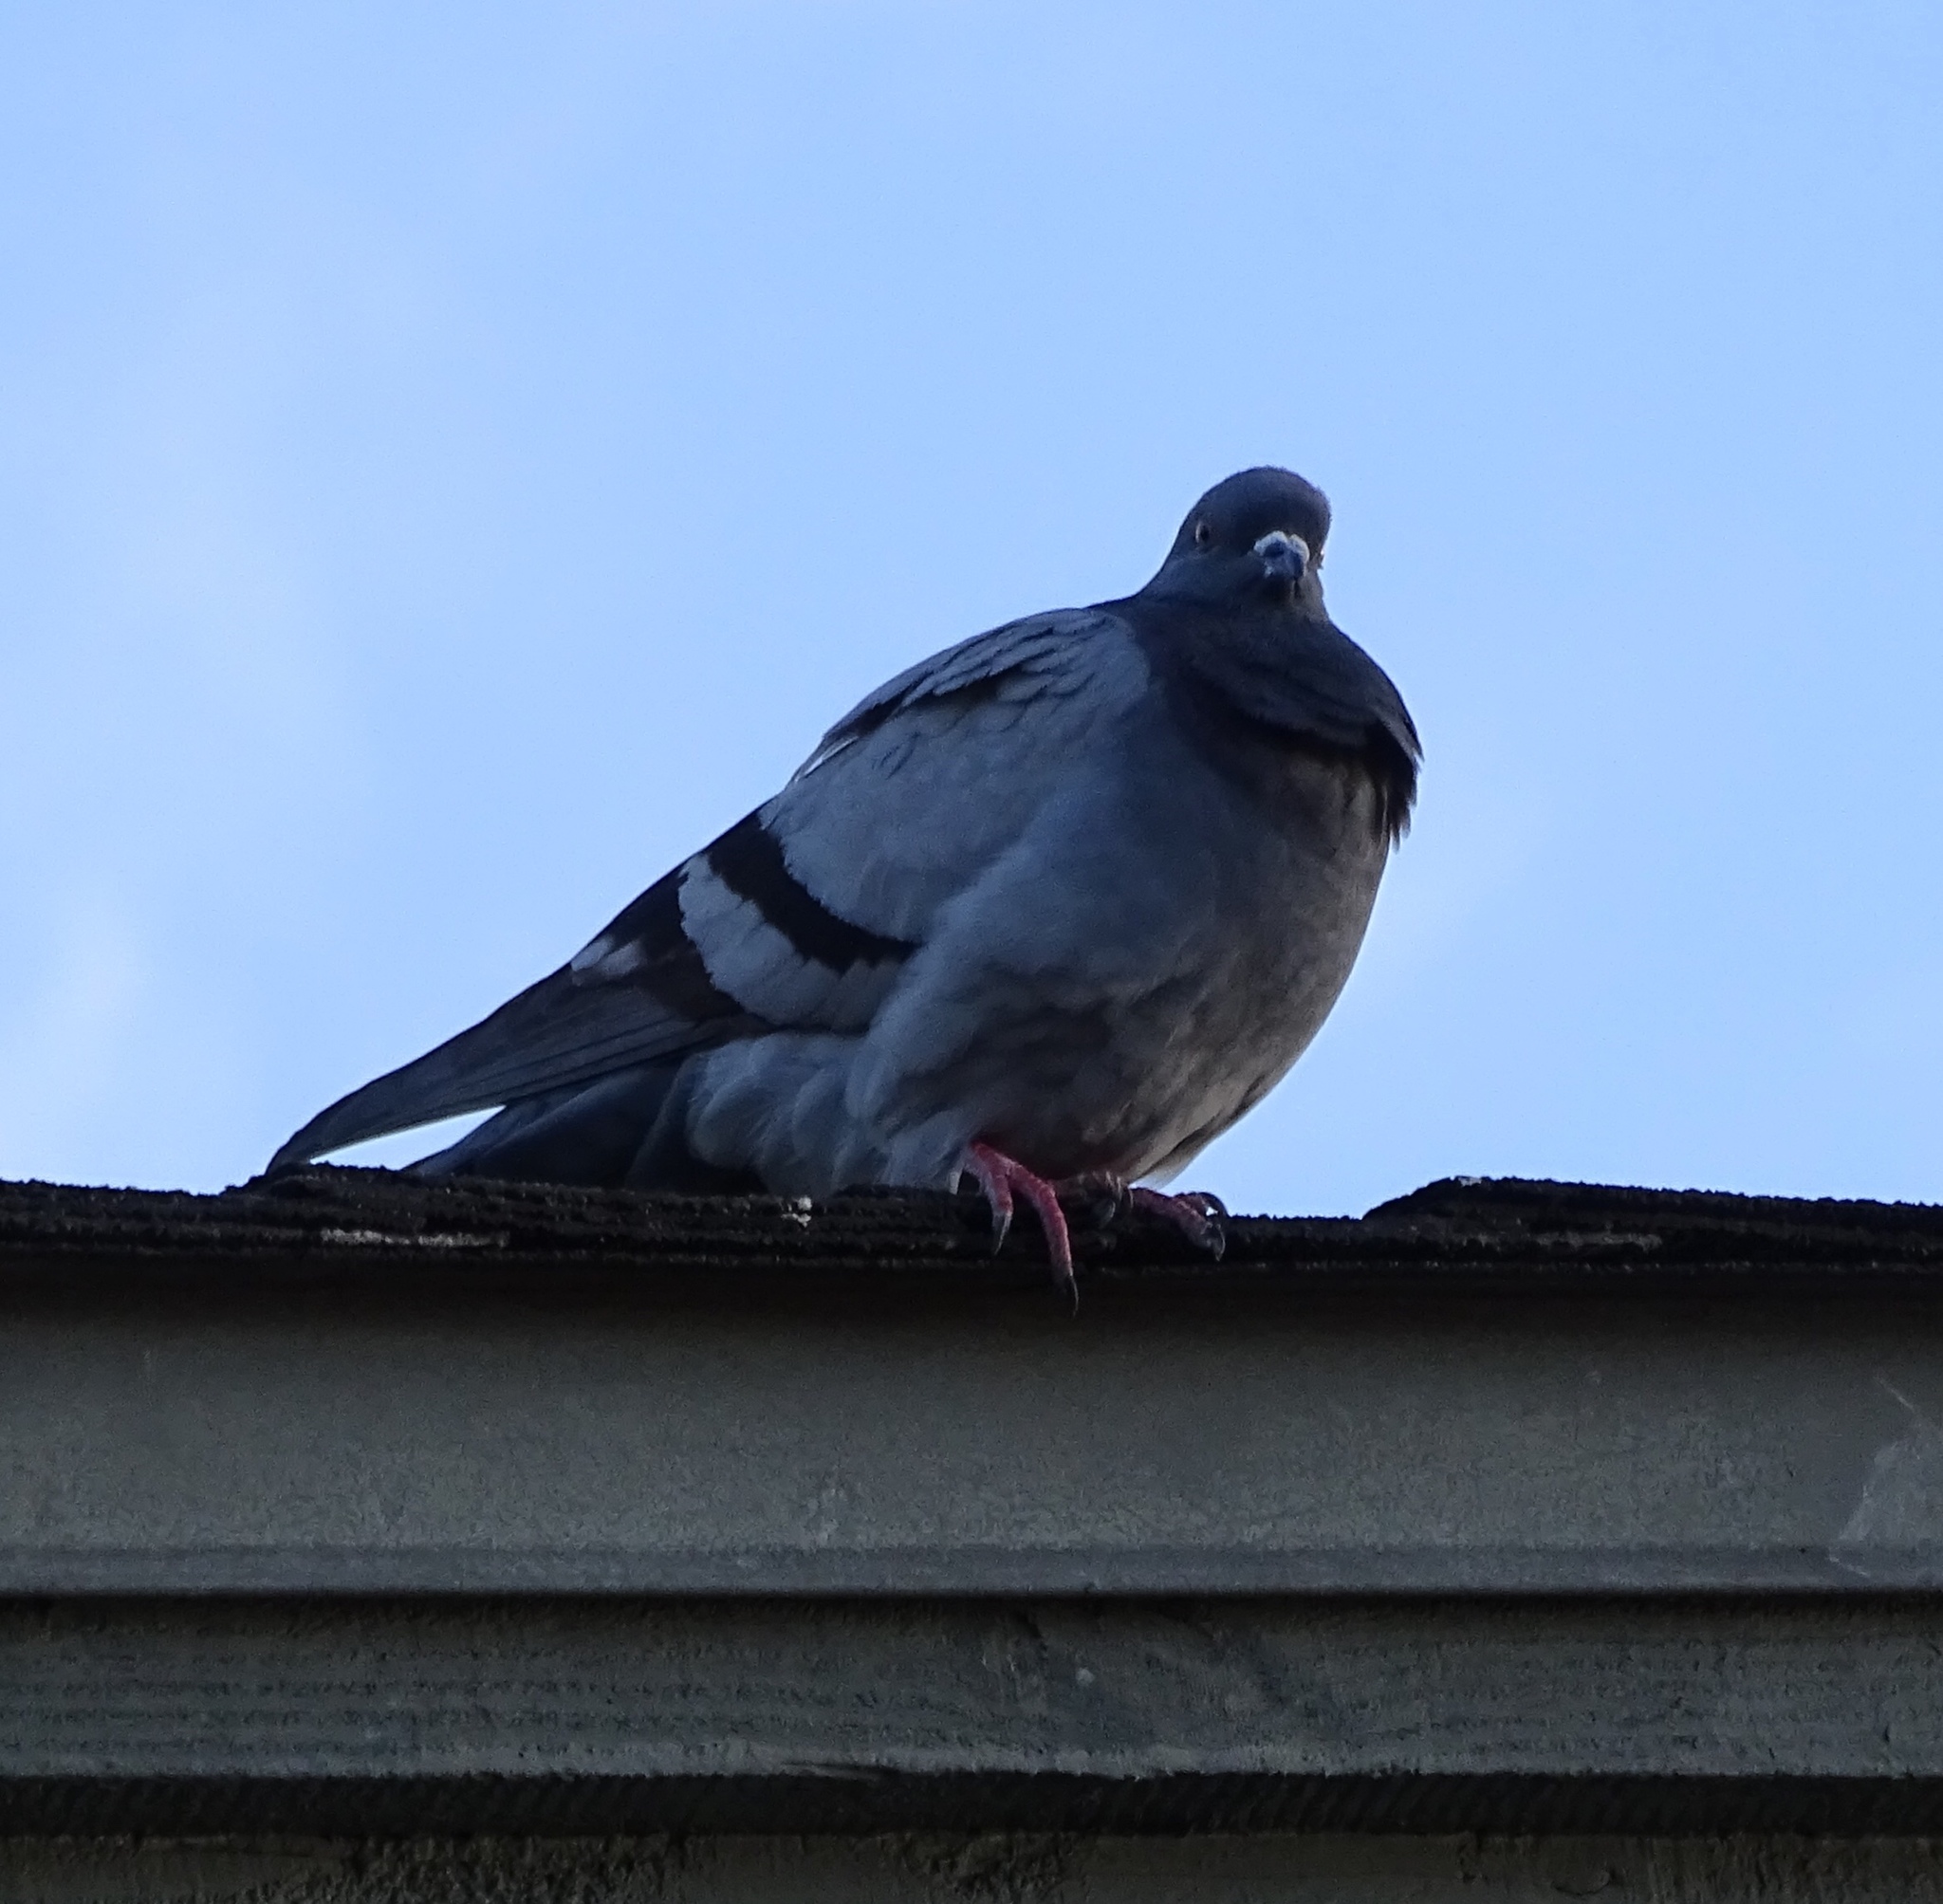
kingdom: Animalia
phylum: Chordata
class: Aves
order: Columbiformes
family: Columbidae
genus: Columba
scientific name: Columba livia
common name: Rock pigeon
